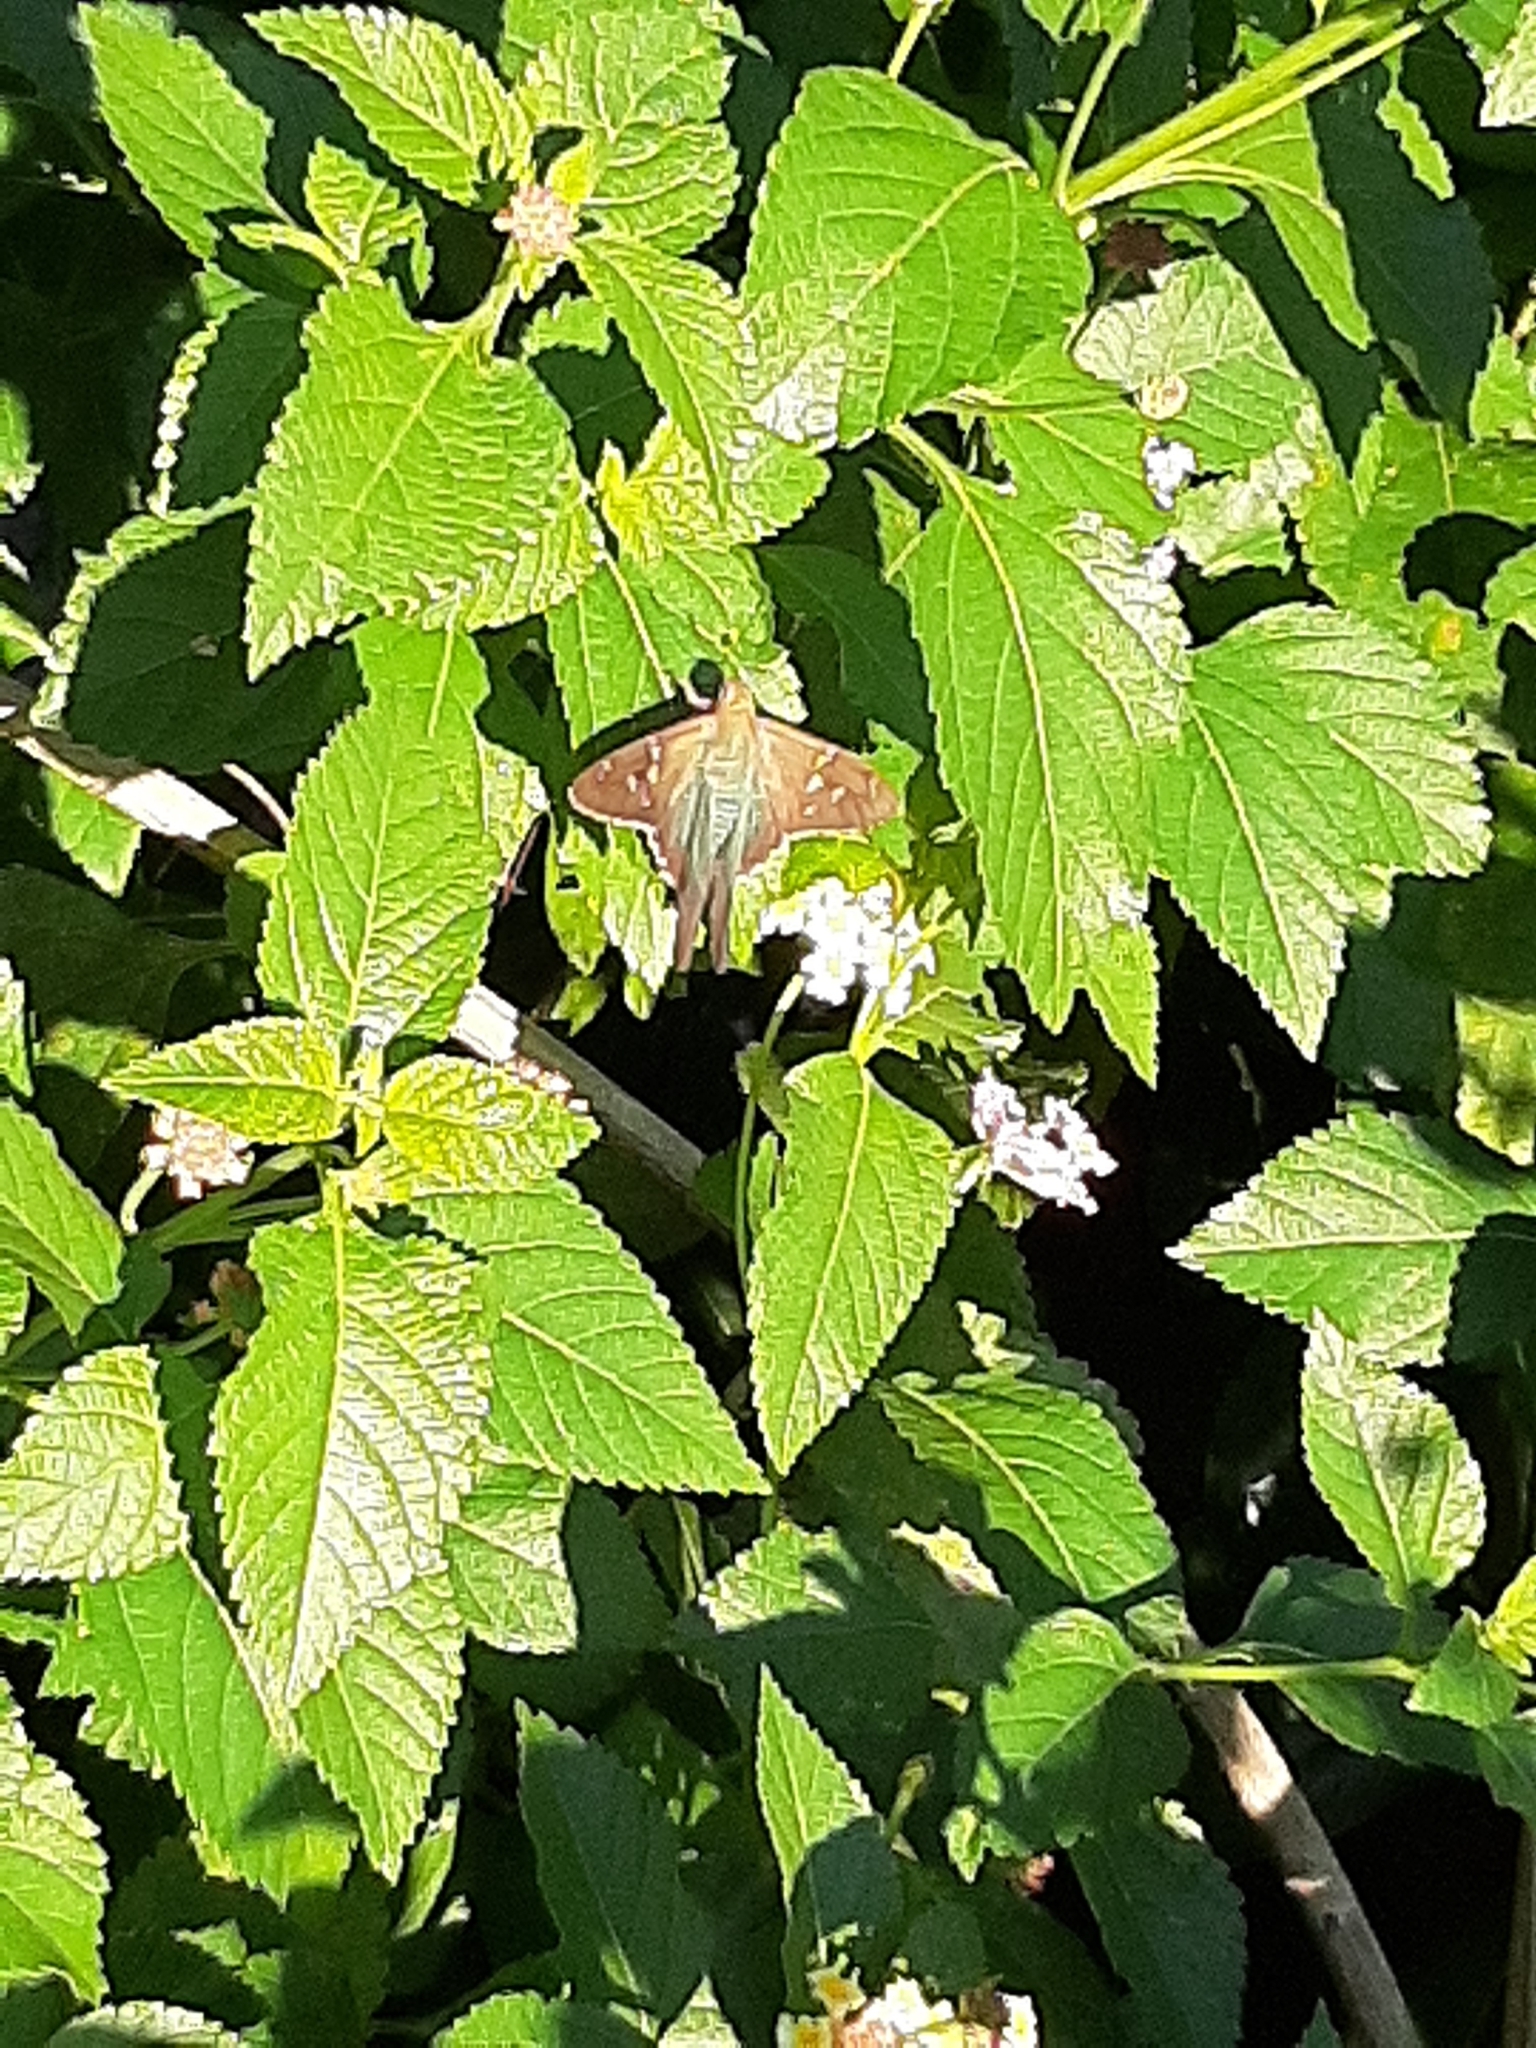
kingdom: Animalia
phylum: Arthropoda
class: Insecta
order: Lepidoptera
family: Hesperiidae
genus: Urbanus
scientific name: Urbanus proteus
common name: Long-tailed skipper
